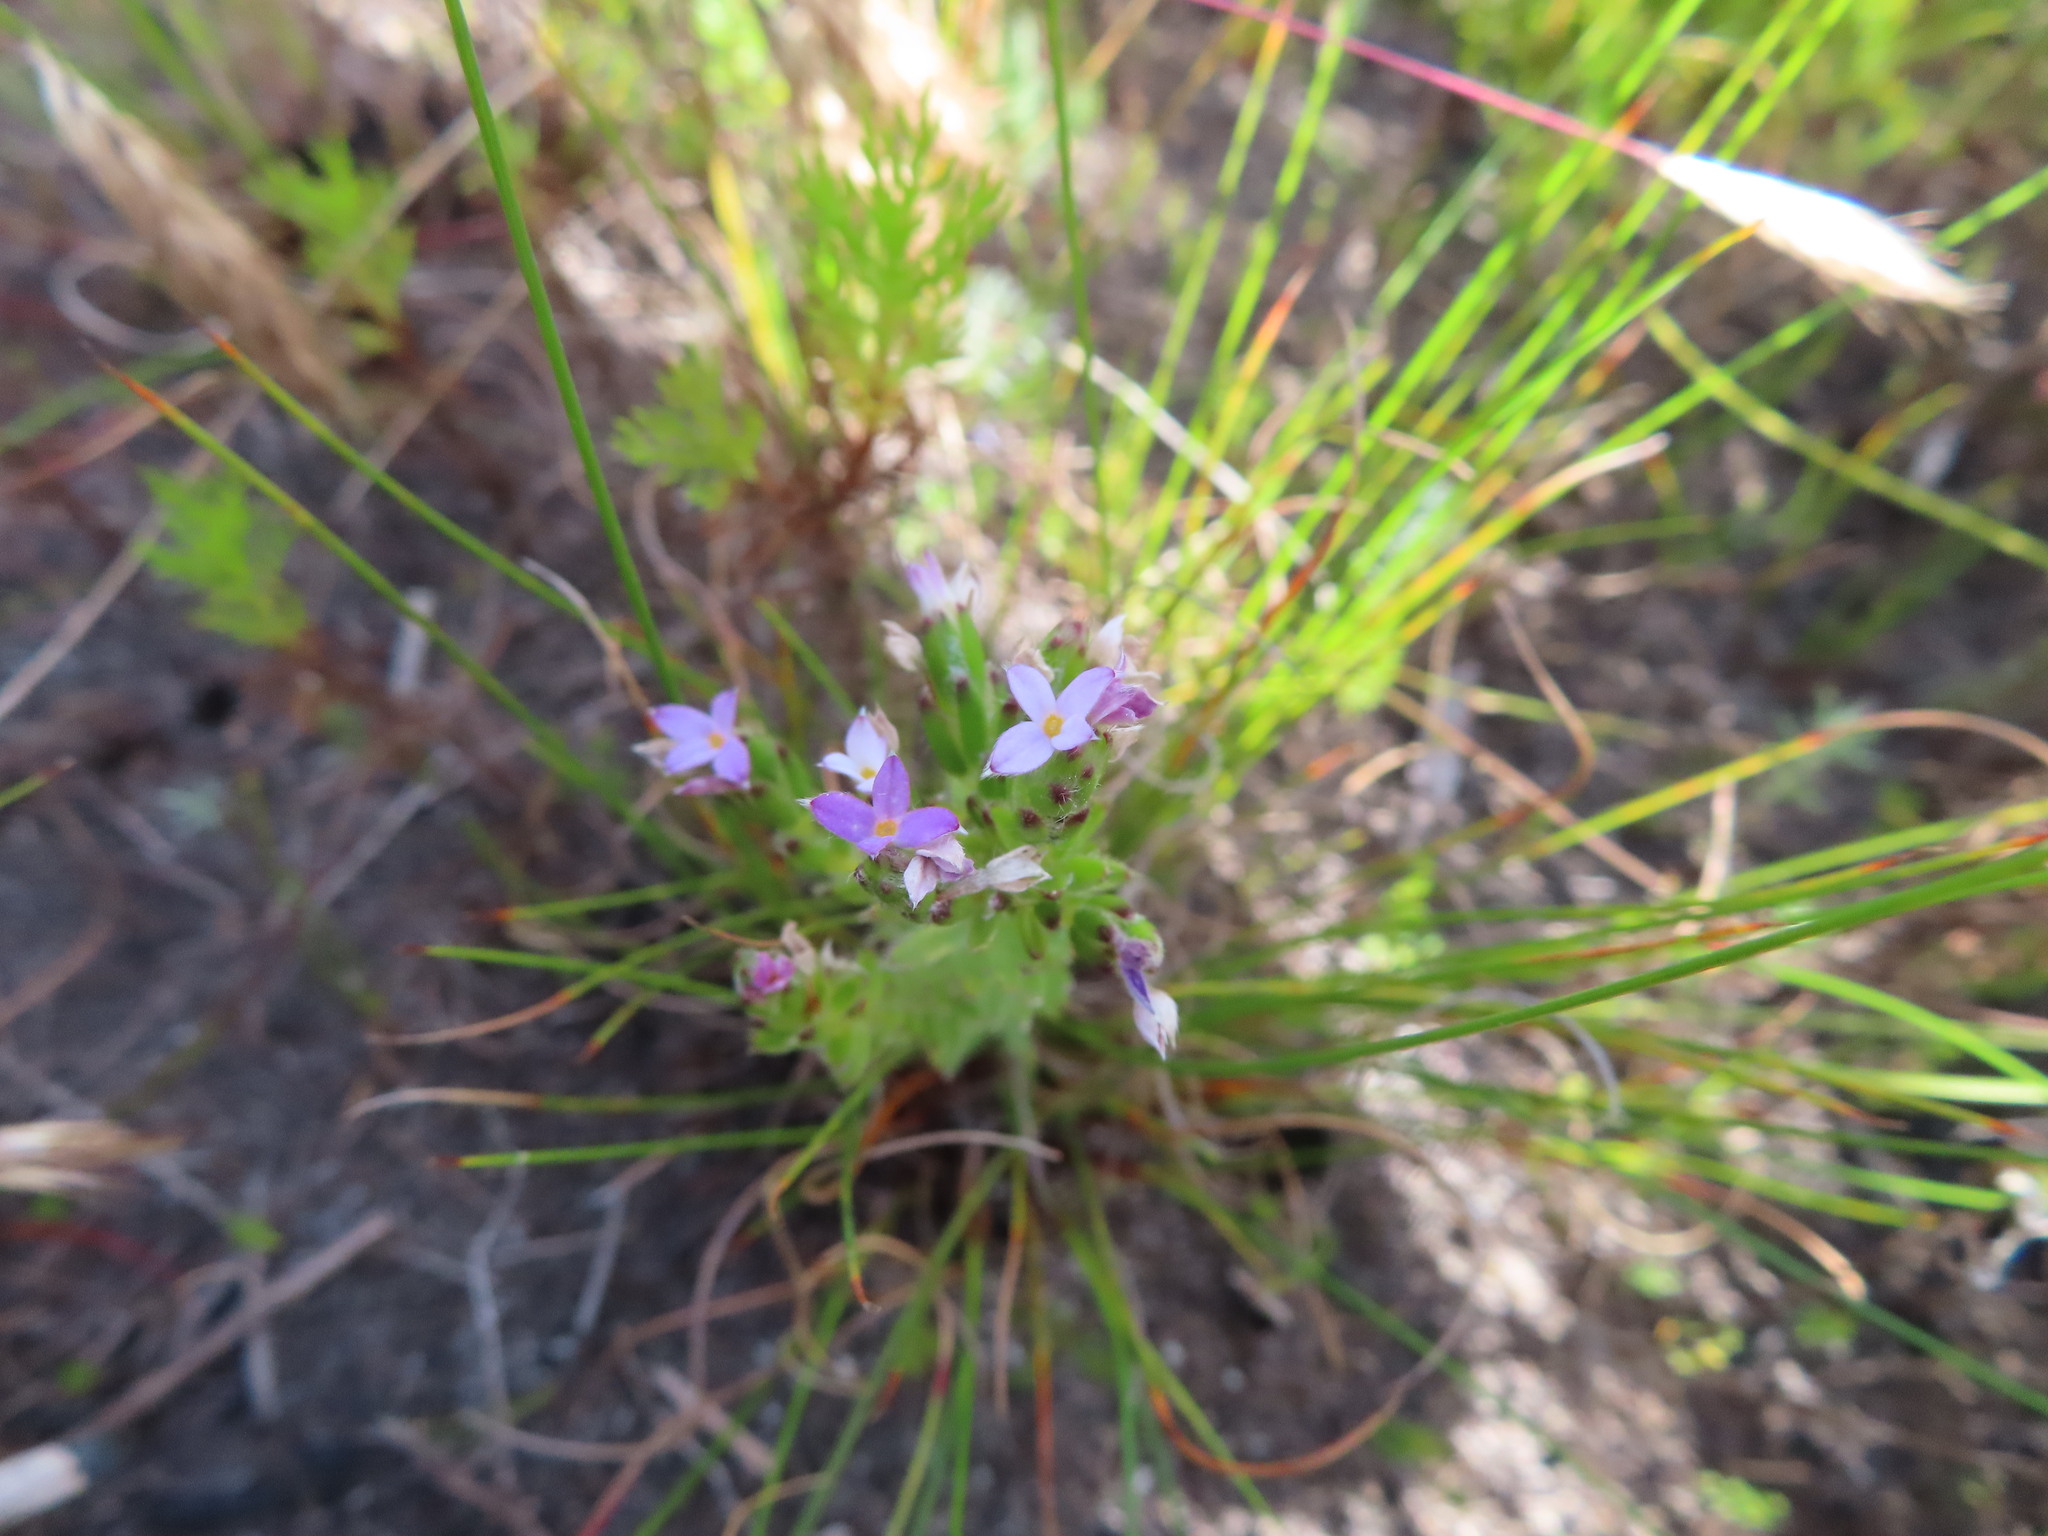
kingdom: Plantae
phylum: Tracheophyta
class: Magnoliopsida
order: Malvales
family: Thymelaeaceae
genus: Gnidia
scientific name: Gnidia penicillata
